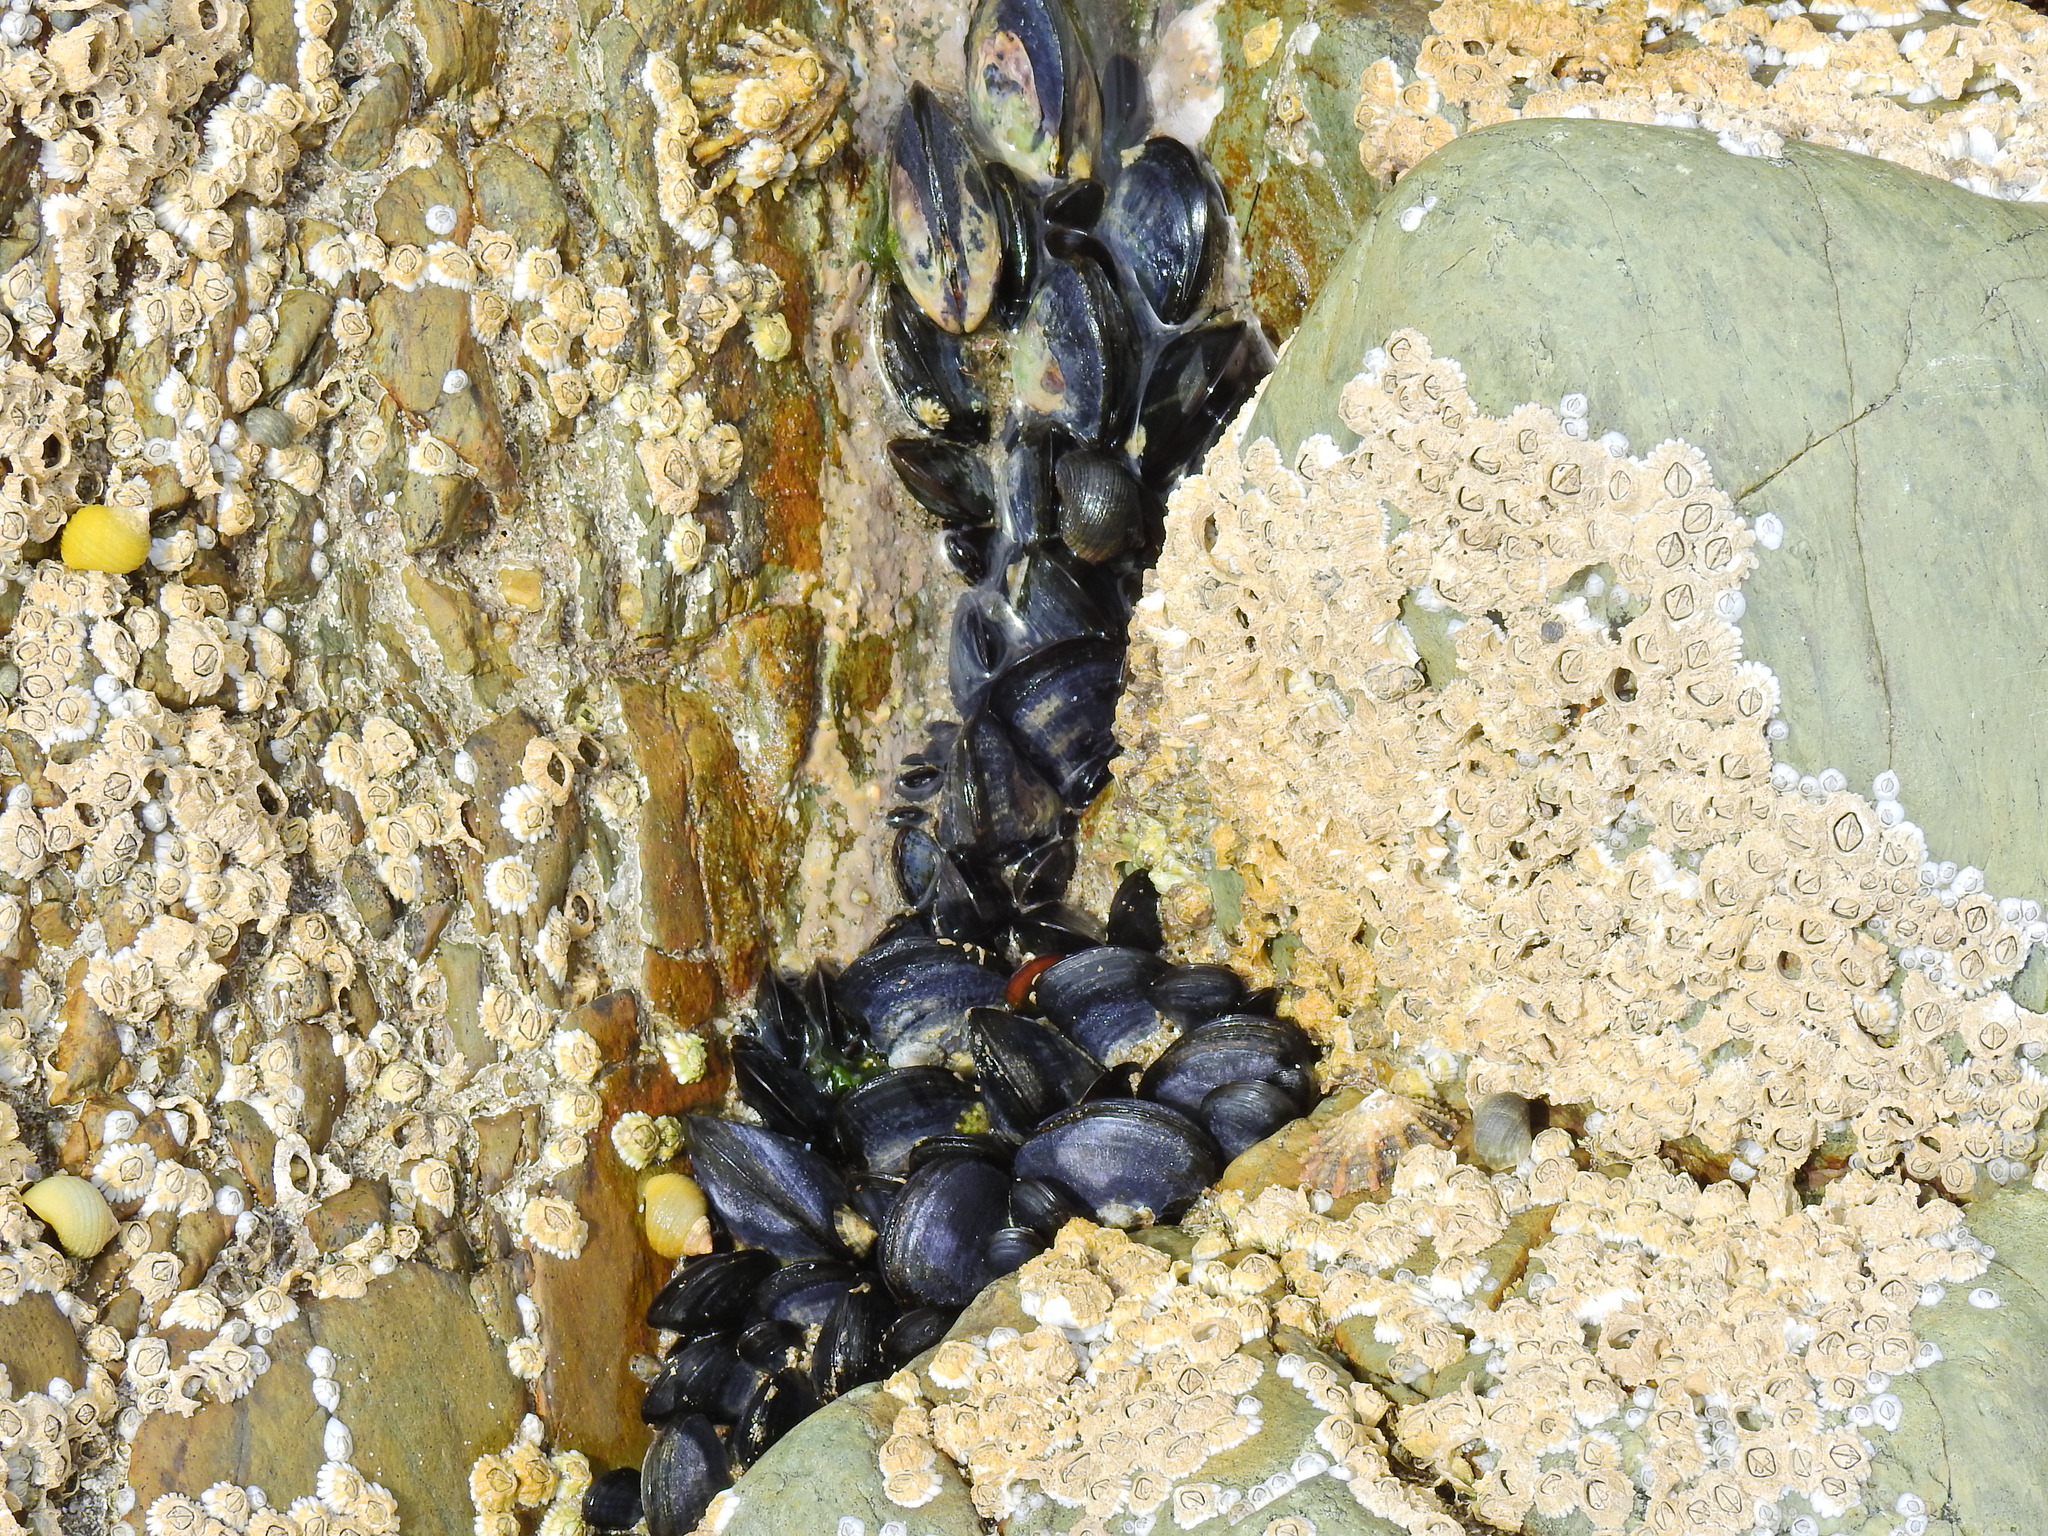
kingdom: Animalia
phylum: Mollusca
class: Bivalvia
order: Mytilida
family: Mytilidae
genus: Mytilus
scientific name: Mytilus edulis
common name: Blue mussel
